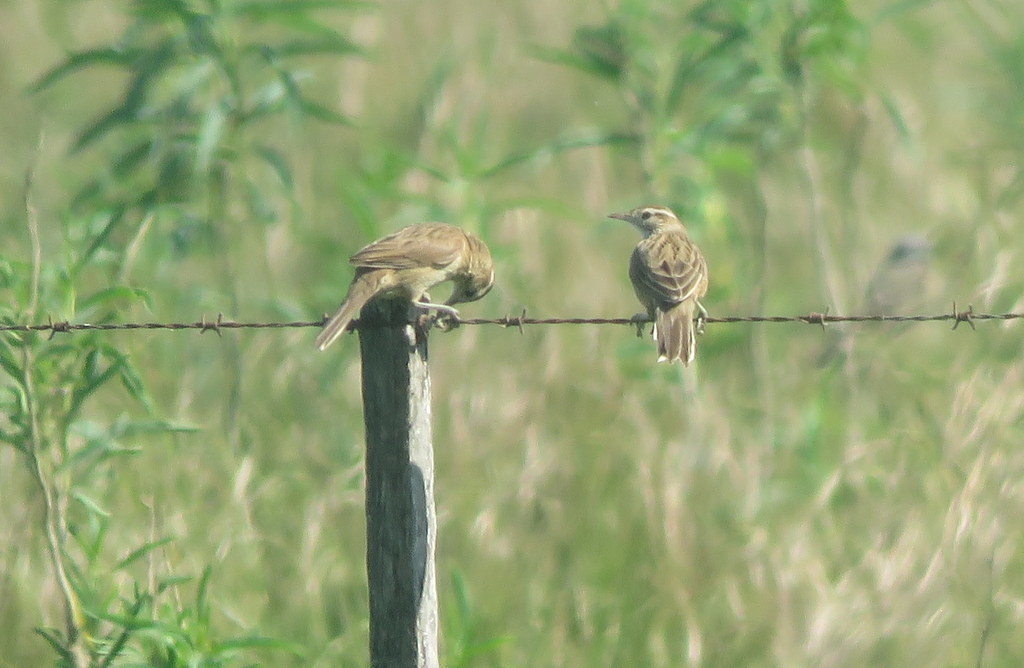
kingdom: Animalia
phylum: Chordata
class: Aves
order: Passeriformes
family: Furnariidae
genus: Anumbius
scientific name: Anumbius annumbi
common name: Firewood-gatherer
